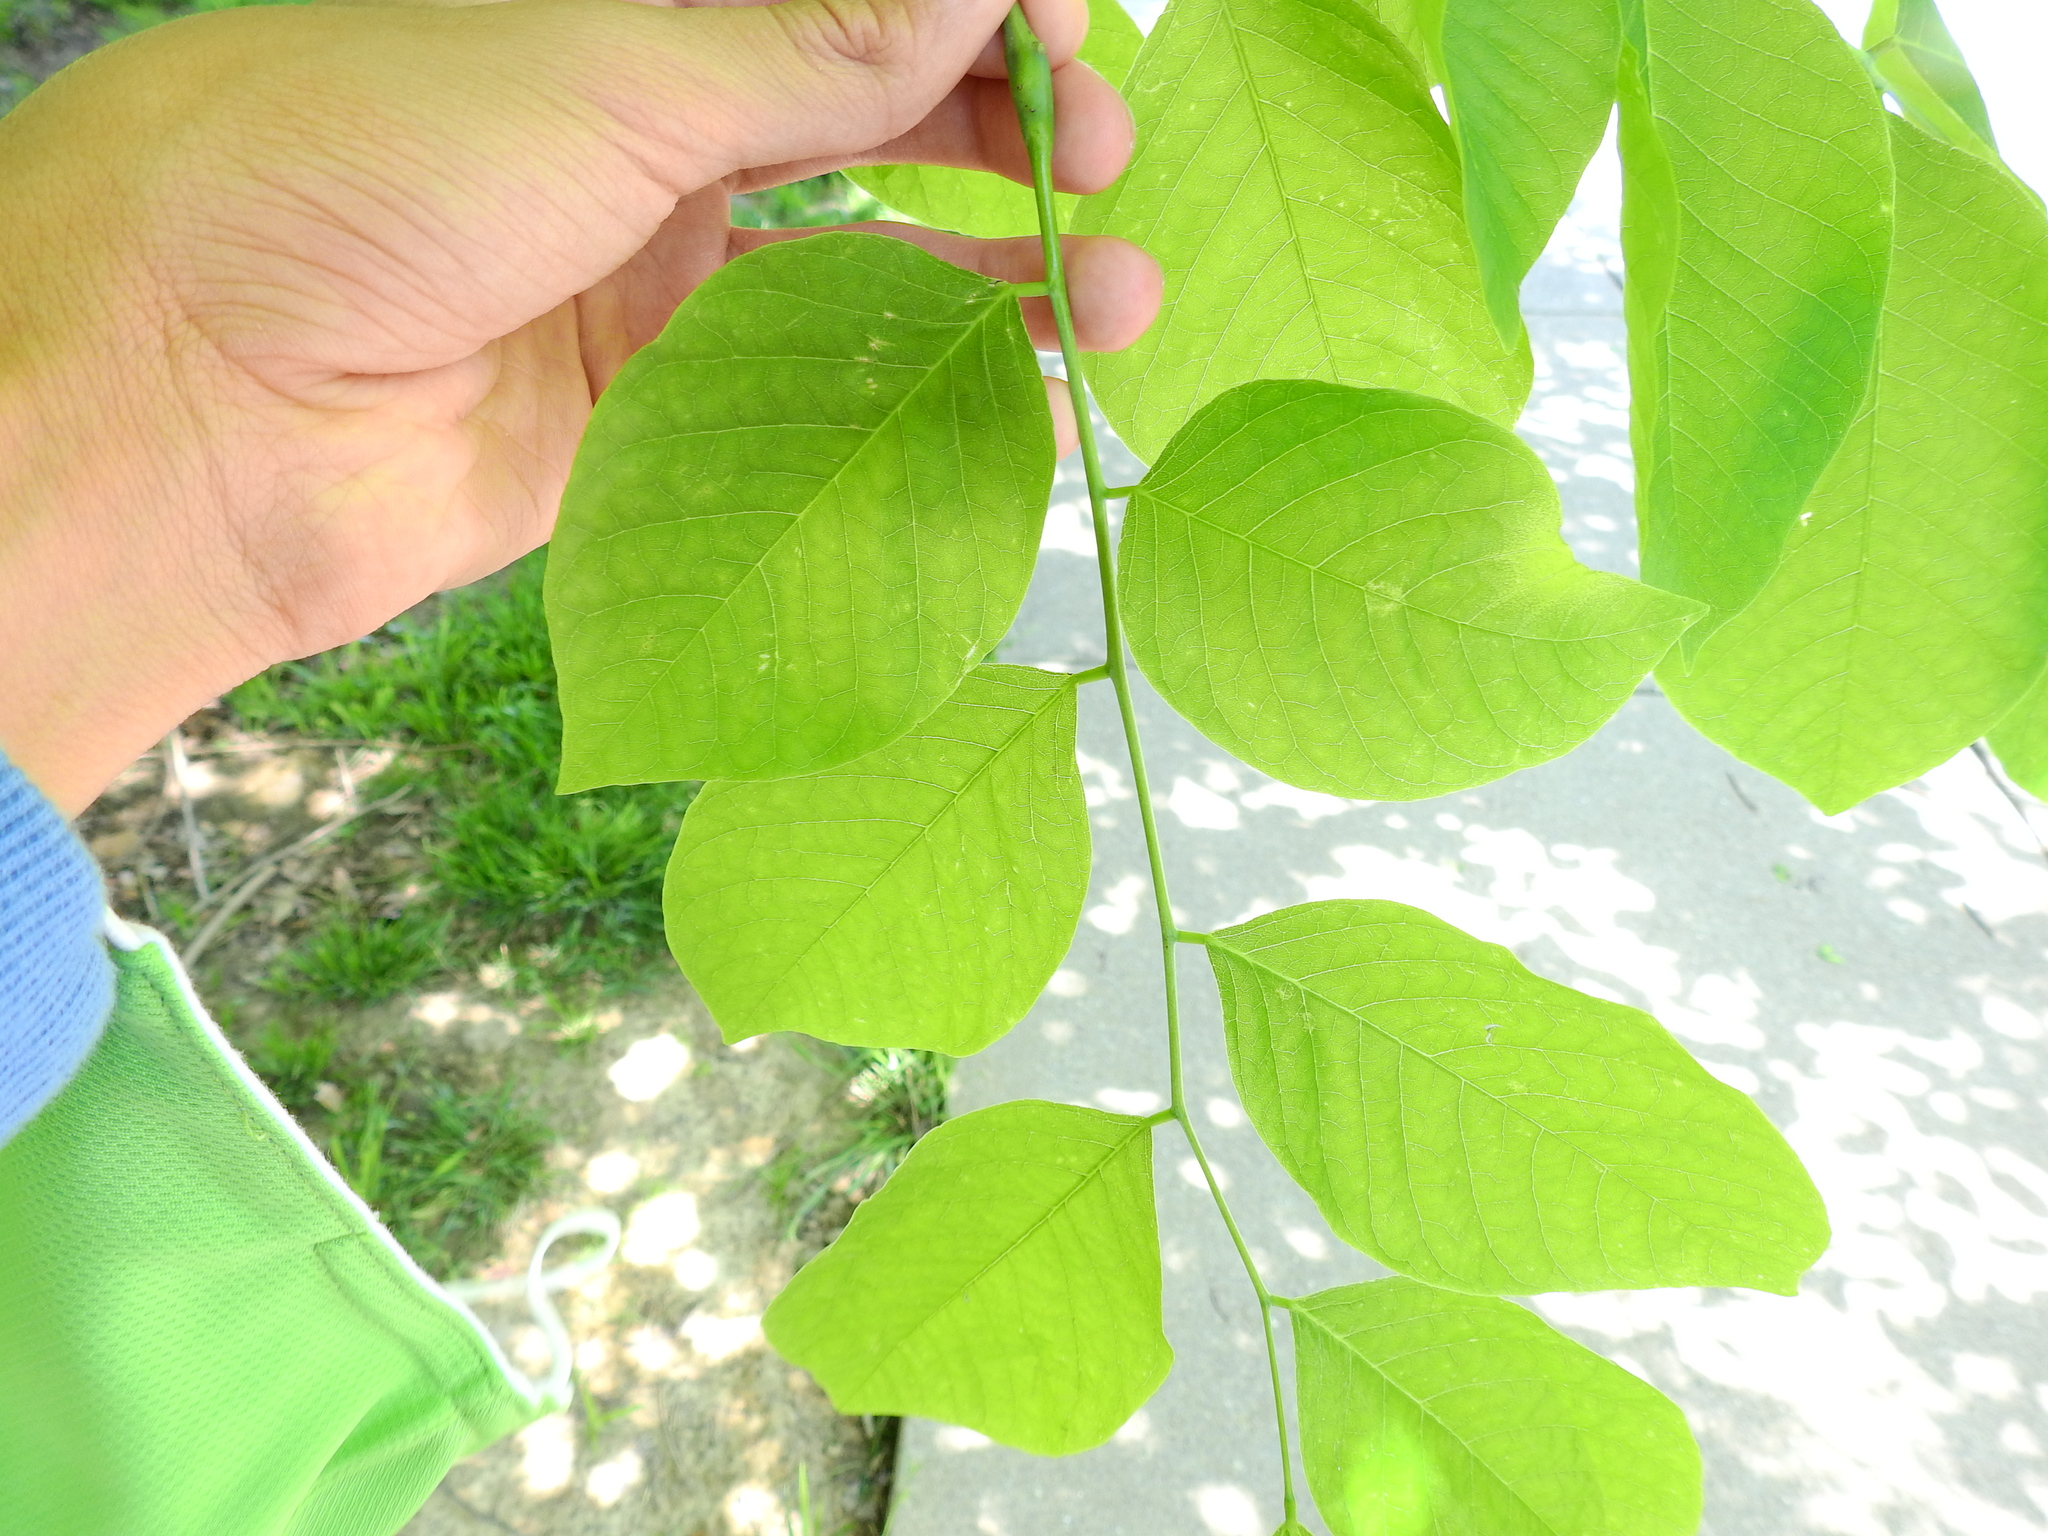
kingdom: Plantae
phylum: Tracheophyta
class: Magnoliopsida
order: Fabales
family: Fabaceae
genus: Cladrastis
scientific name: Cladrastis kentukea
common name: Kentucky yellow-wood
